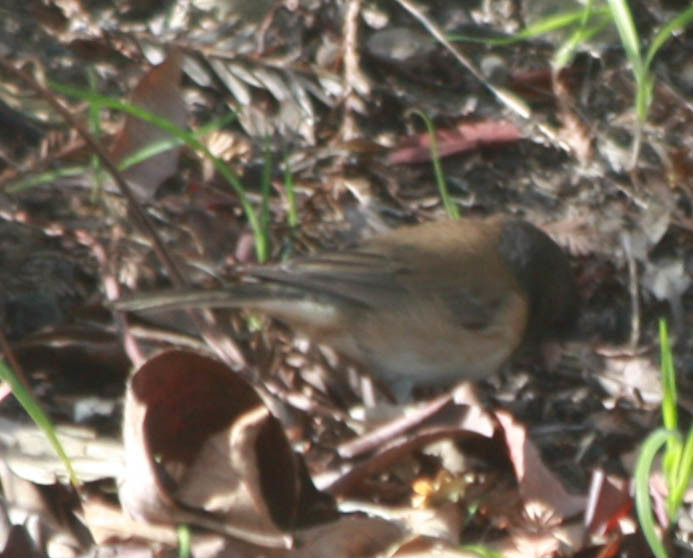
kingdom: Animalia
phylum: Chordata
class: Aves
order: Passeriformes
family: Passerellidae
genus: Junco
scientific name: Junco hyemalis
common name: Dark-eyed junco
